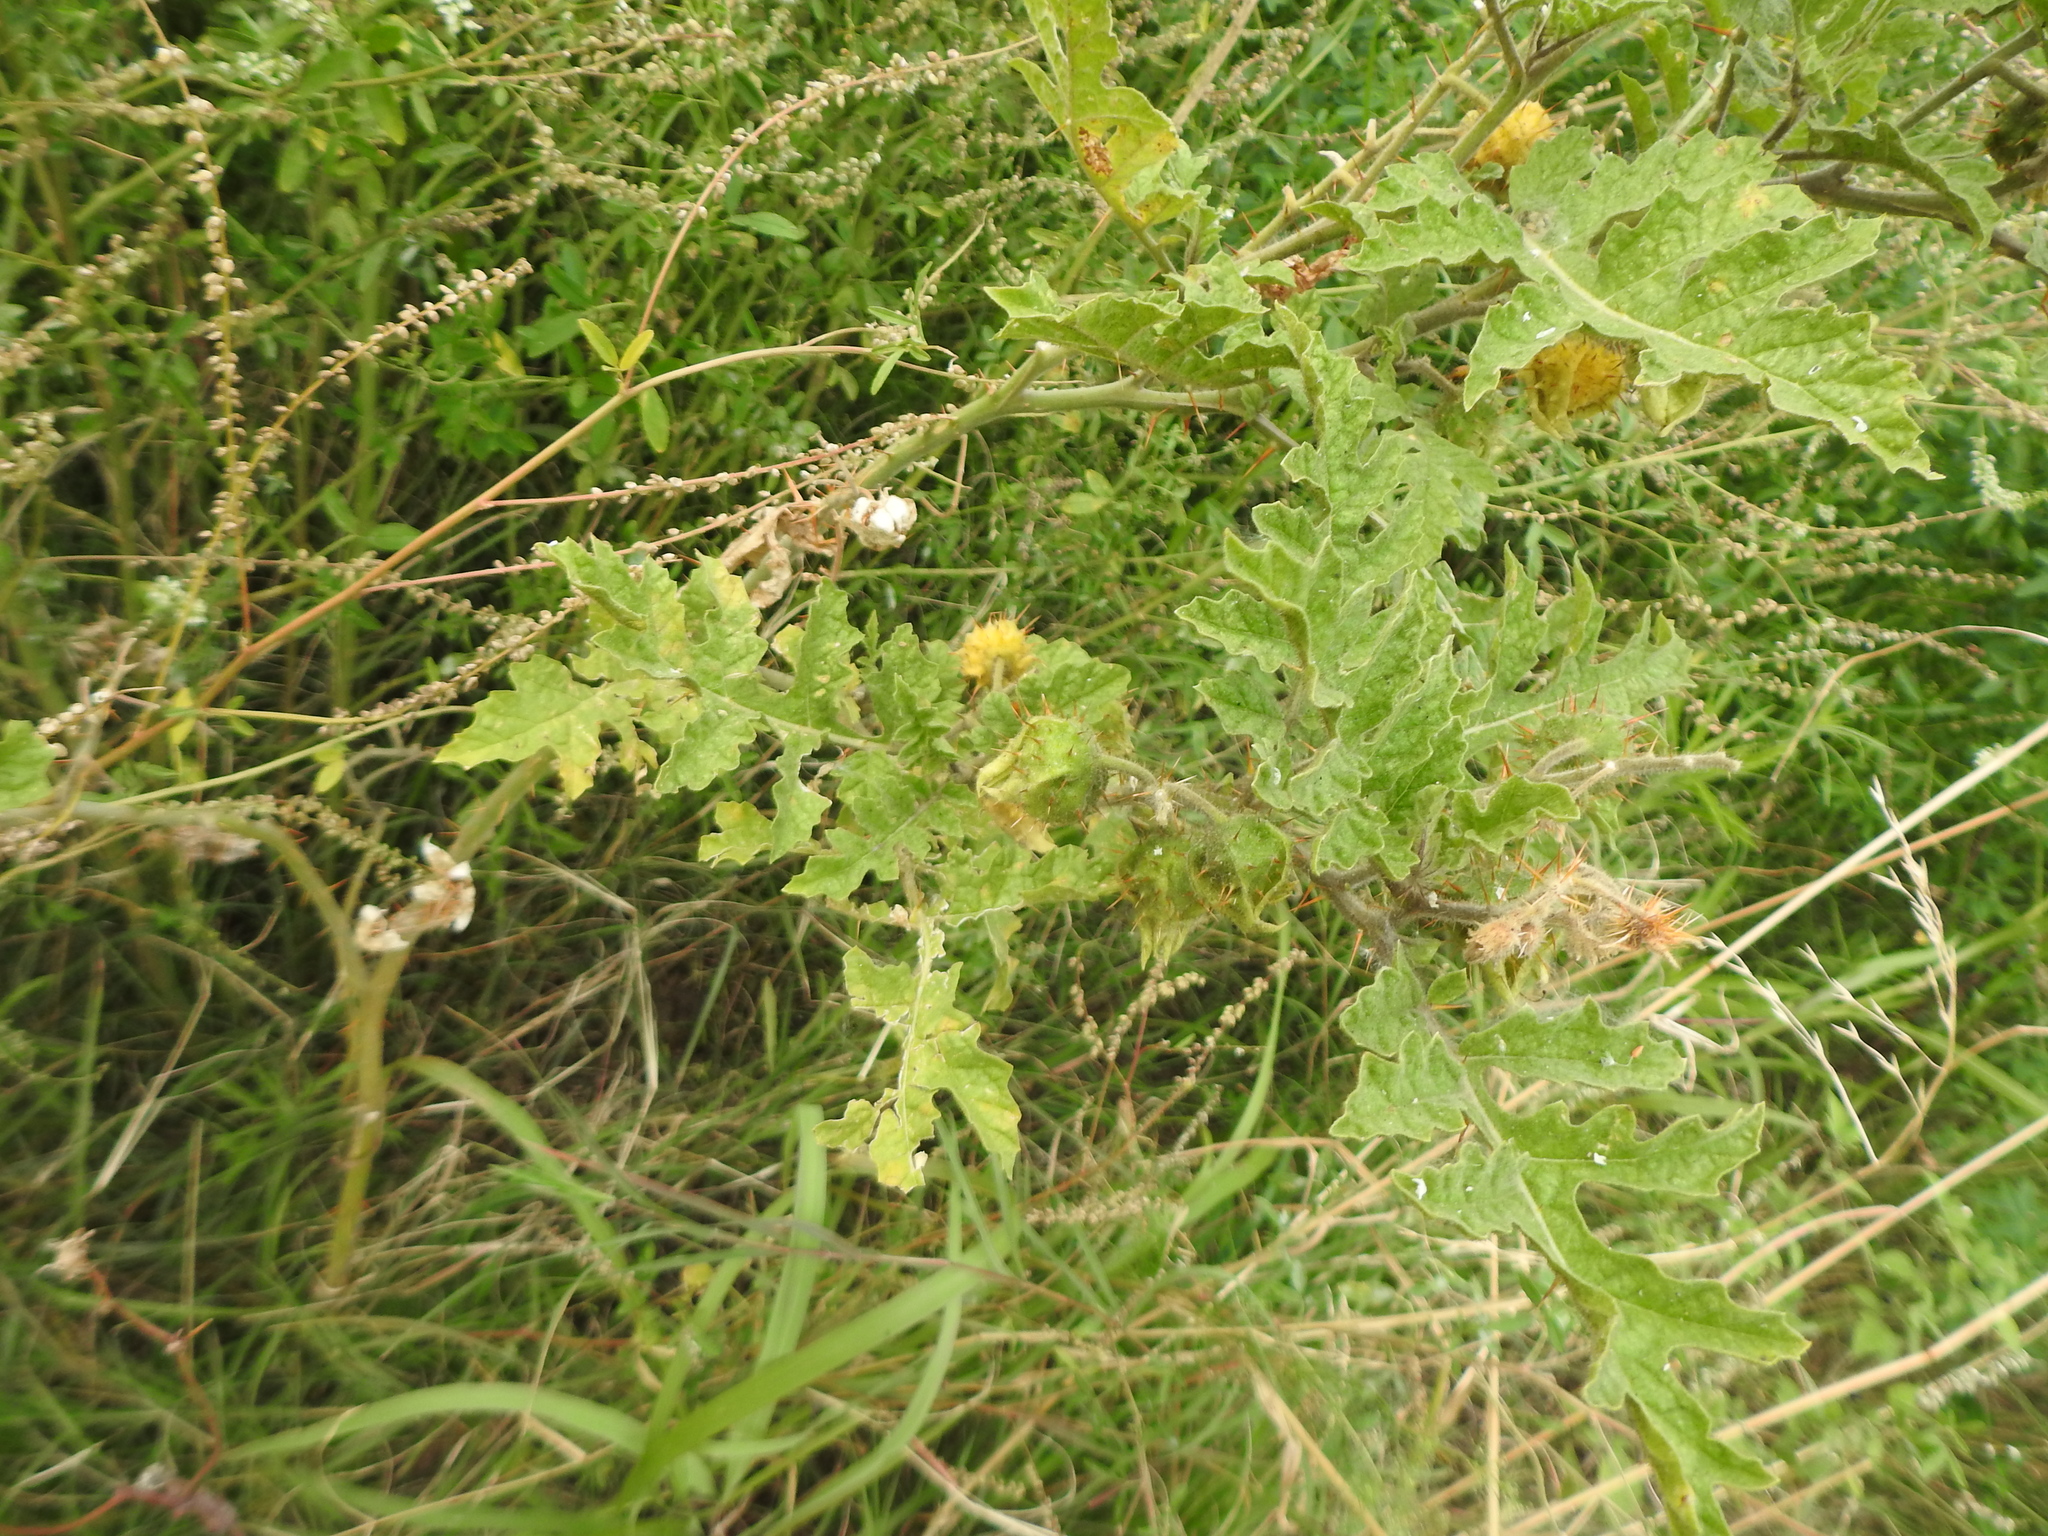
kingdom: Plantae
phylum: Tracheophyta
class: Magnoliopsida
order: Solanales
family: Solanaceae
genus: Solanum
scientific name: Solanum sisymbriifolium
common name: Red buffalo-bur
